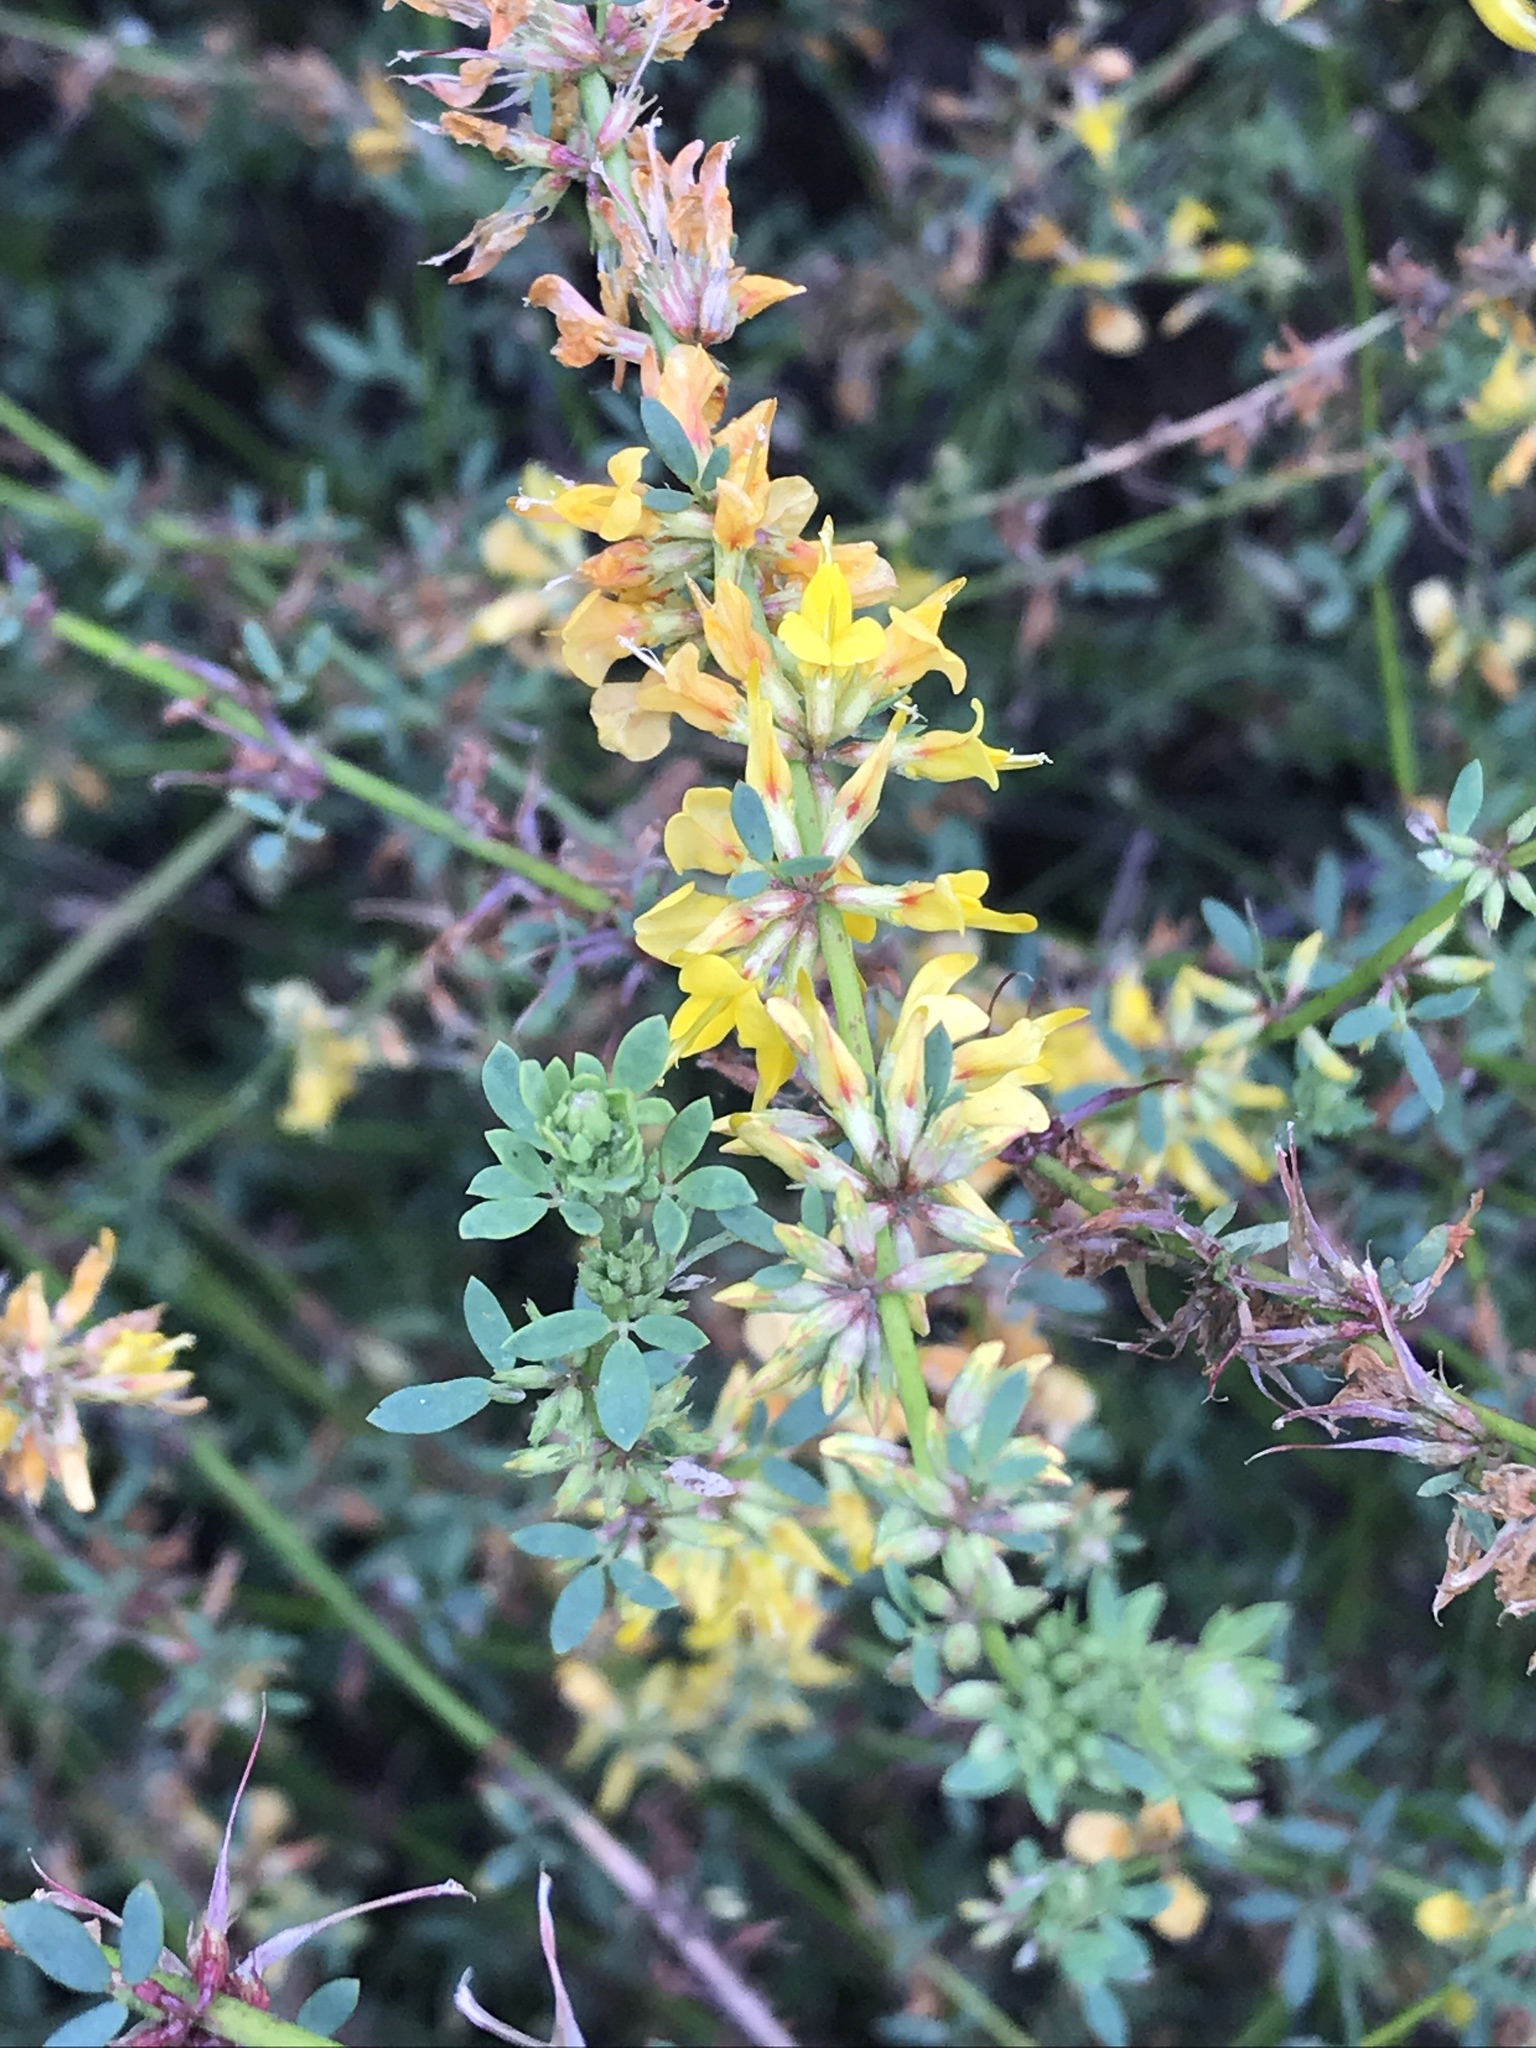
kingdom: Plantae
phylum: Tracheophyta
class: Magnoliopsida
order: Fabales
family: Fabaceae
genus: Acmispon
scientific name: Acmispon glaber
